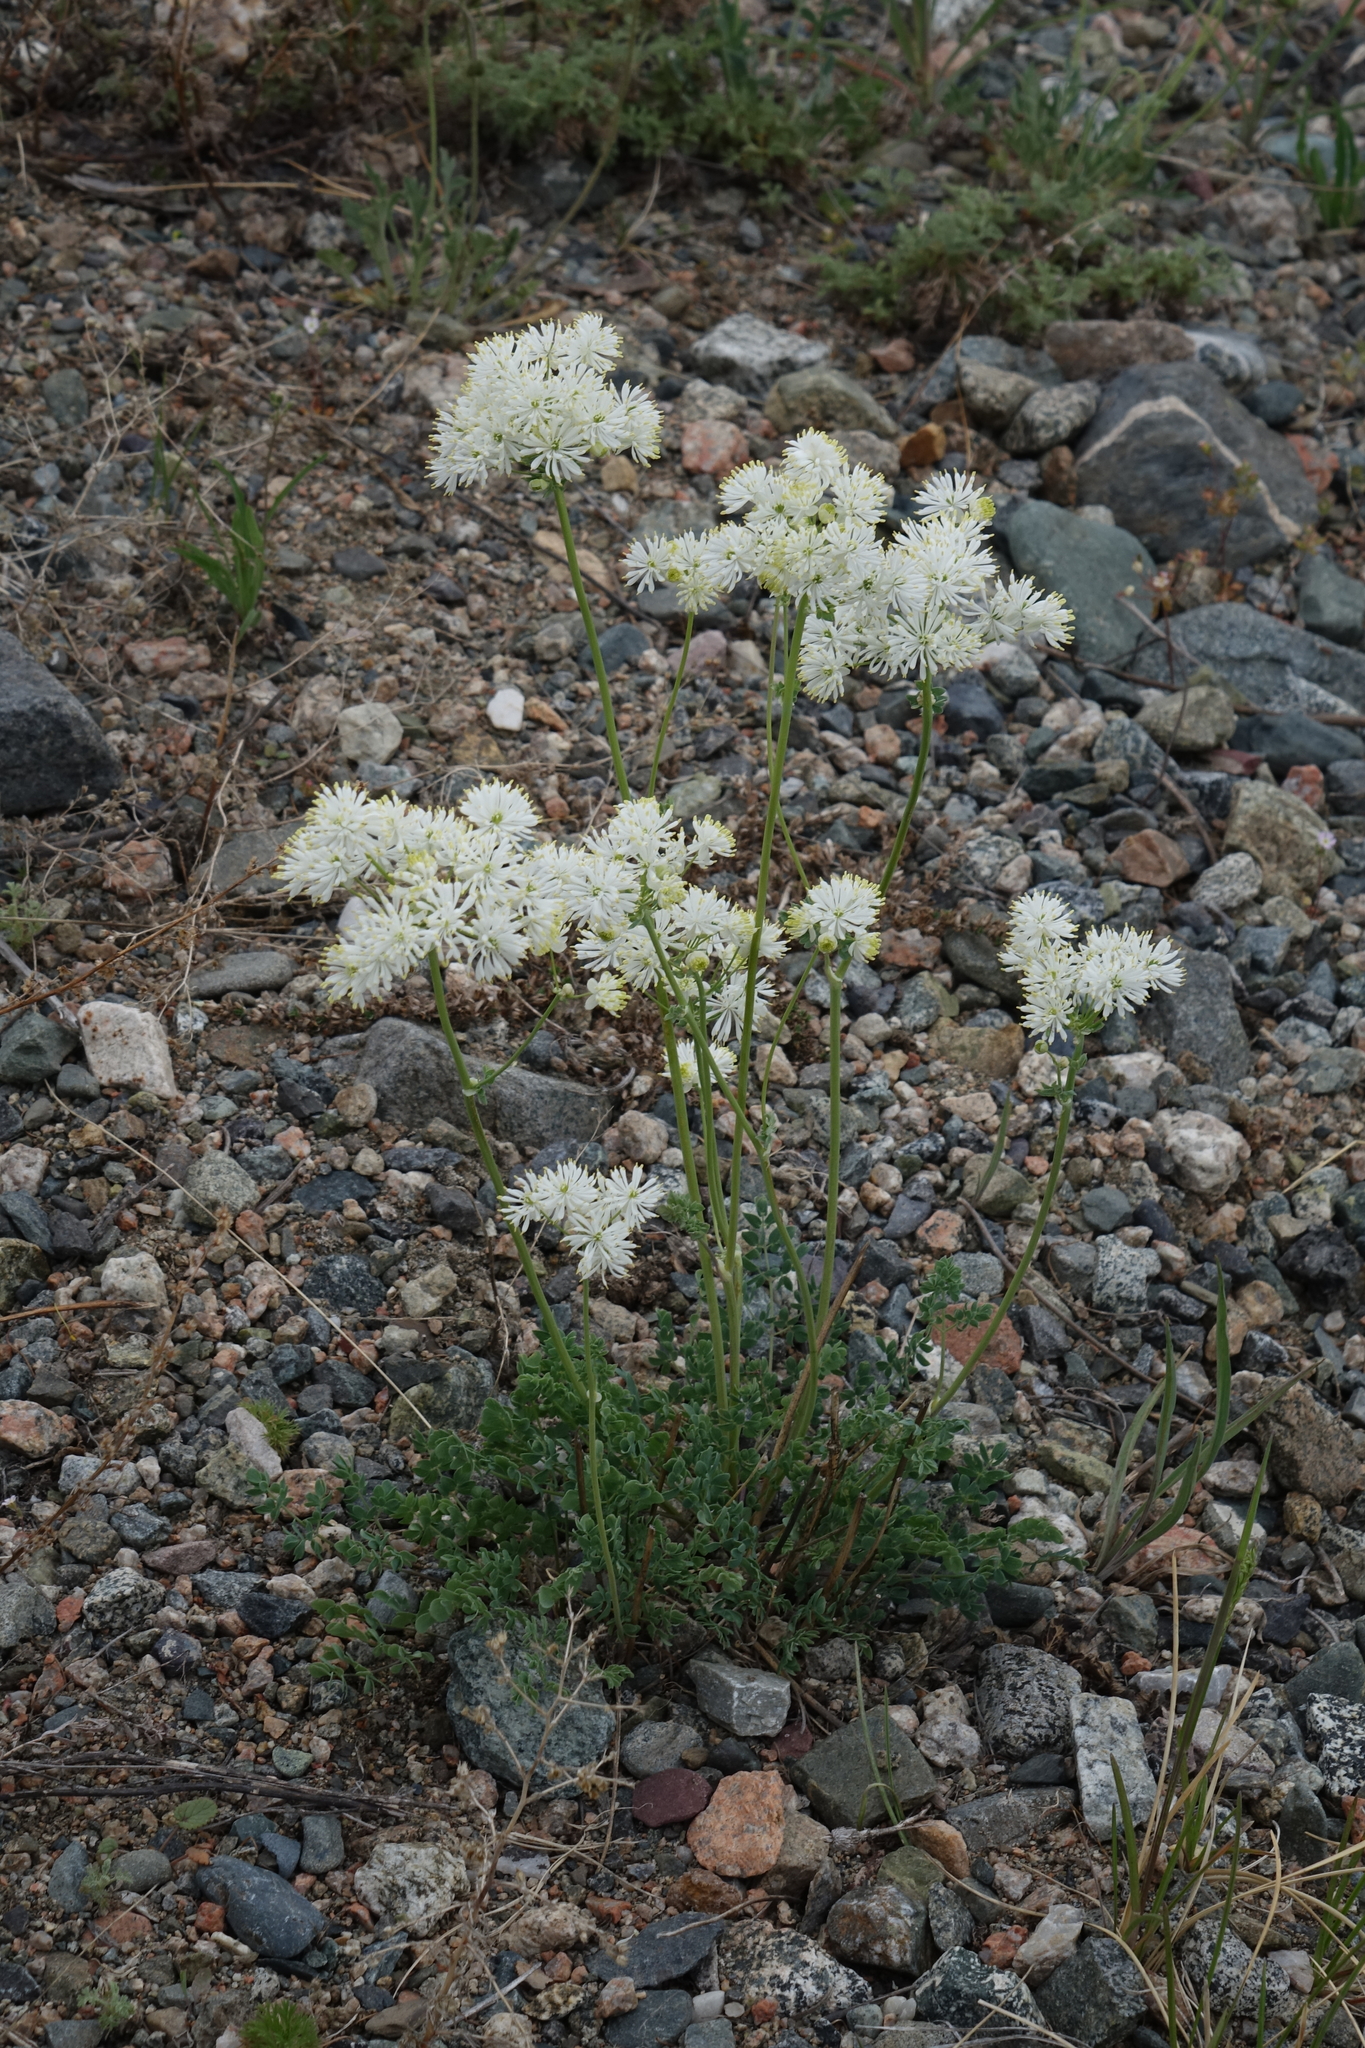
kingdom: Plantae
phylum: Tracheophyta
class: Magnoliopsida
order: Ranunculales
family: Ranunculaceae
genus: Thalictrum
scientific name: Thalictrum petaloideum
